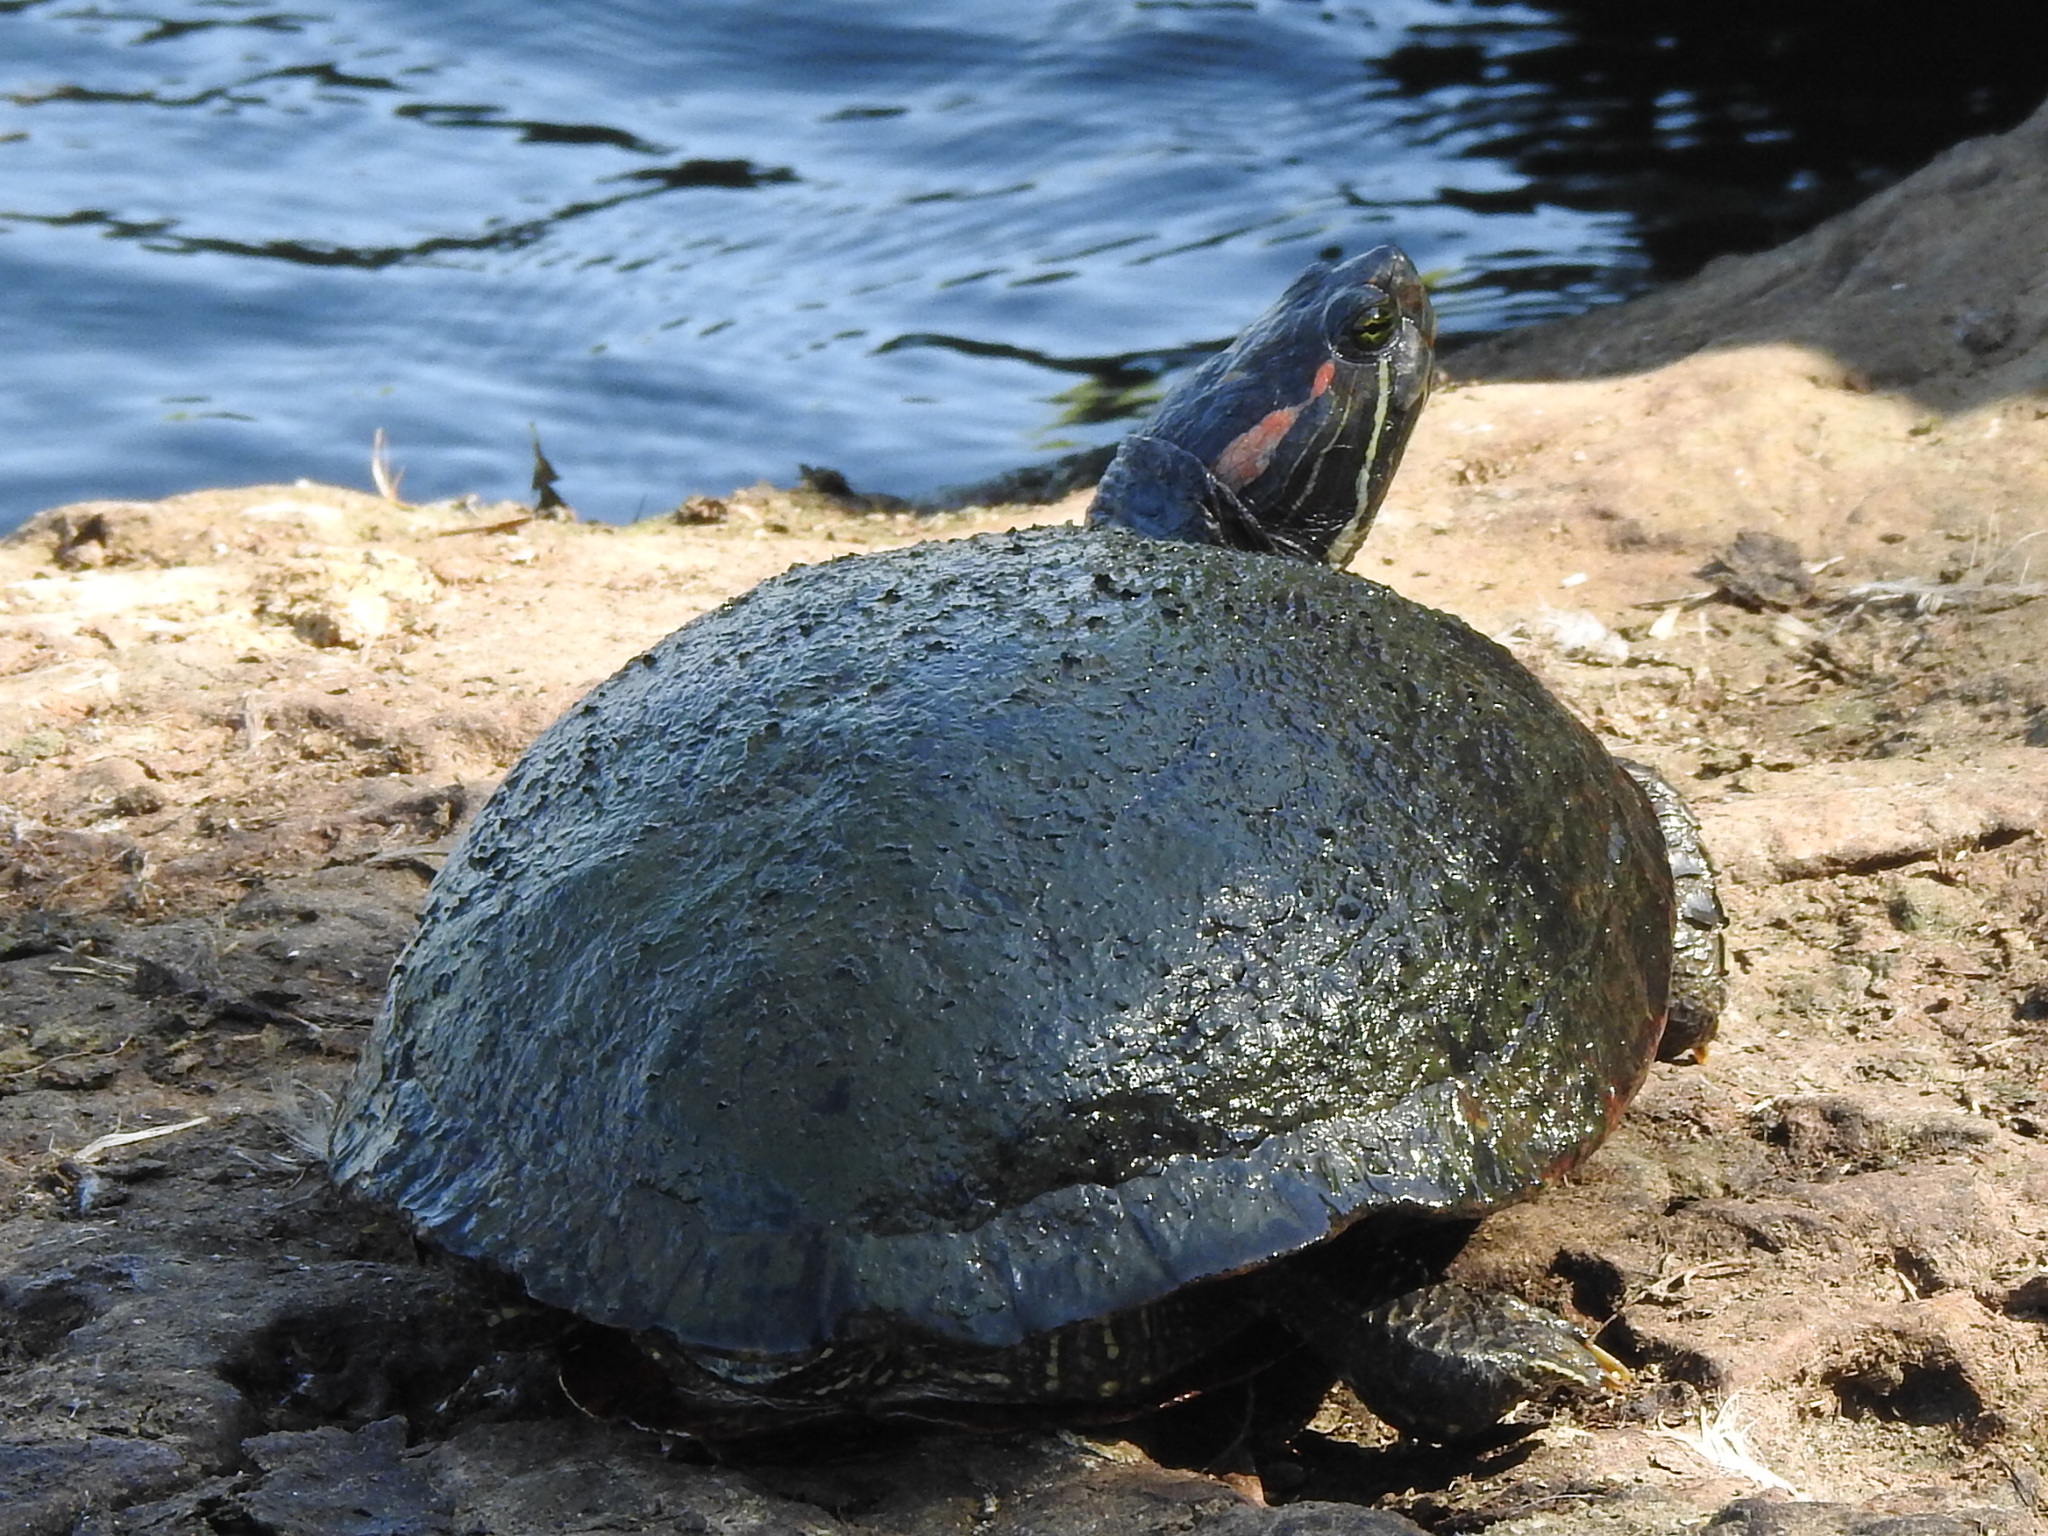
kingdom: Animalia
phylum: Chordata
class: Testudines
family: Emydidae
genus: Trachemys
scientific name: Trachemys scripta
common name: Slider
